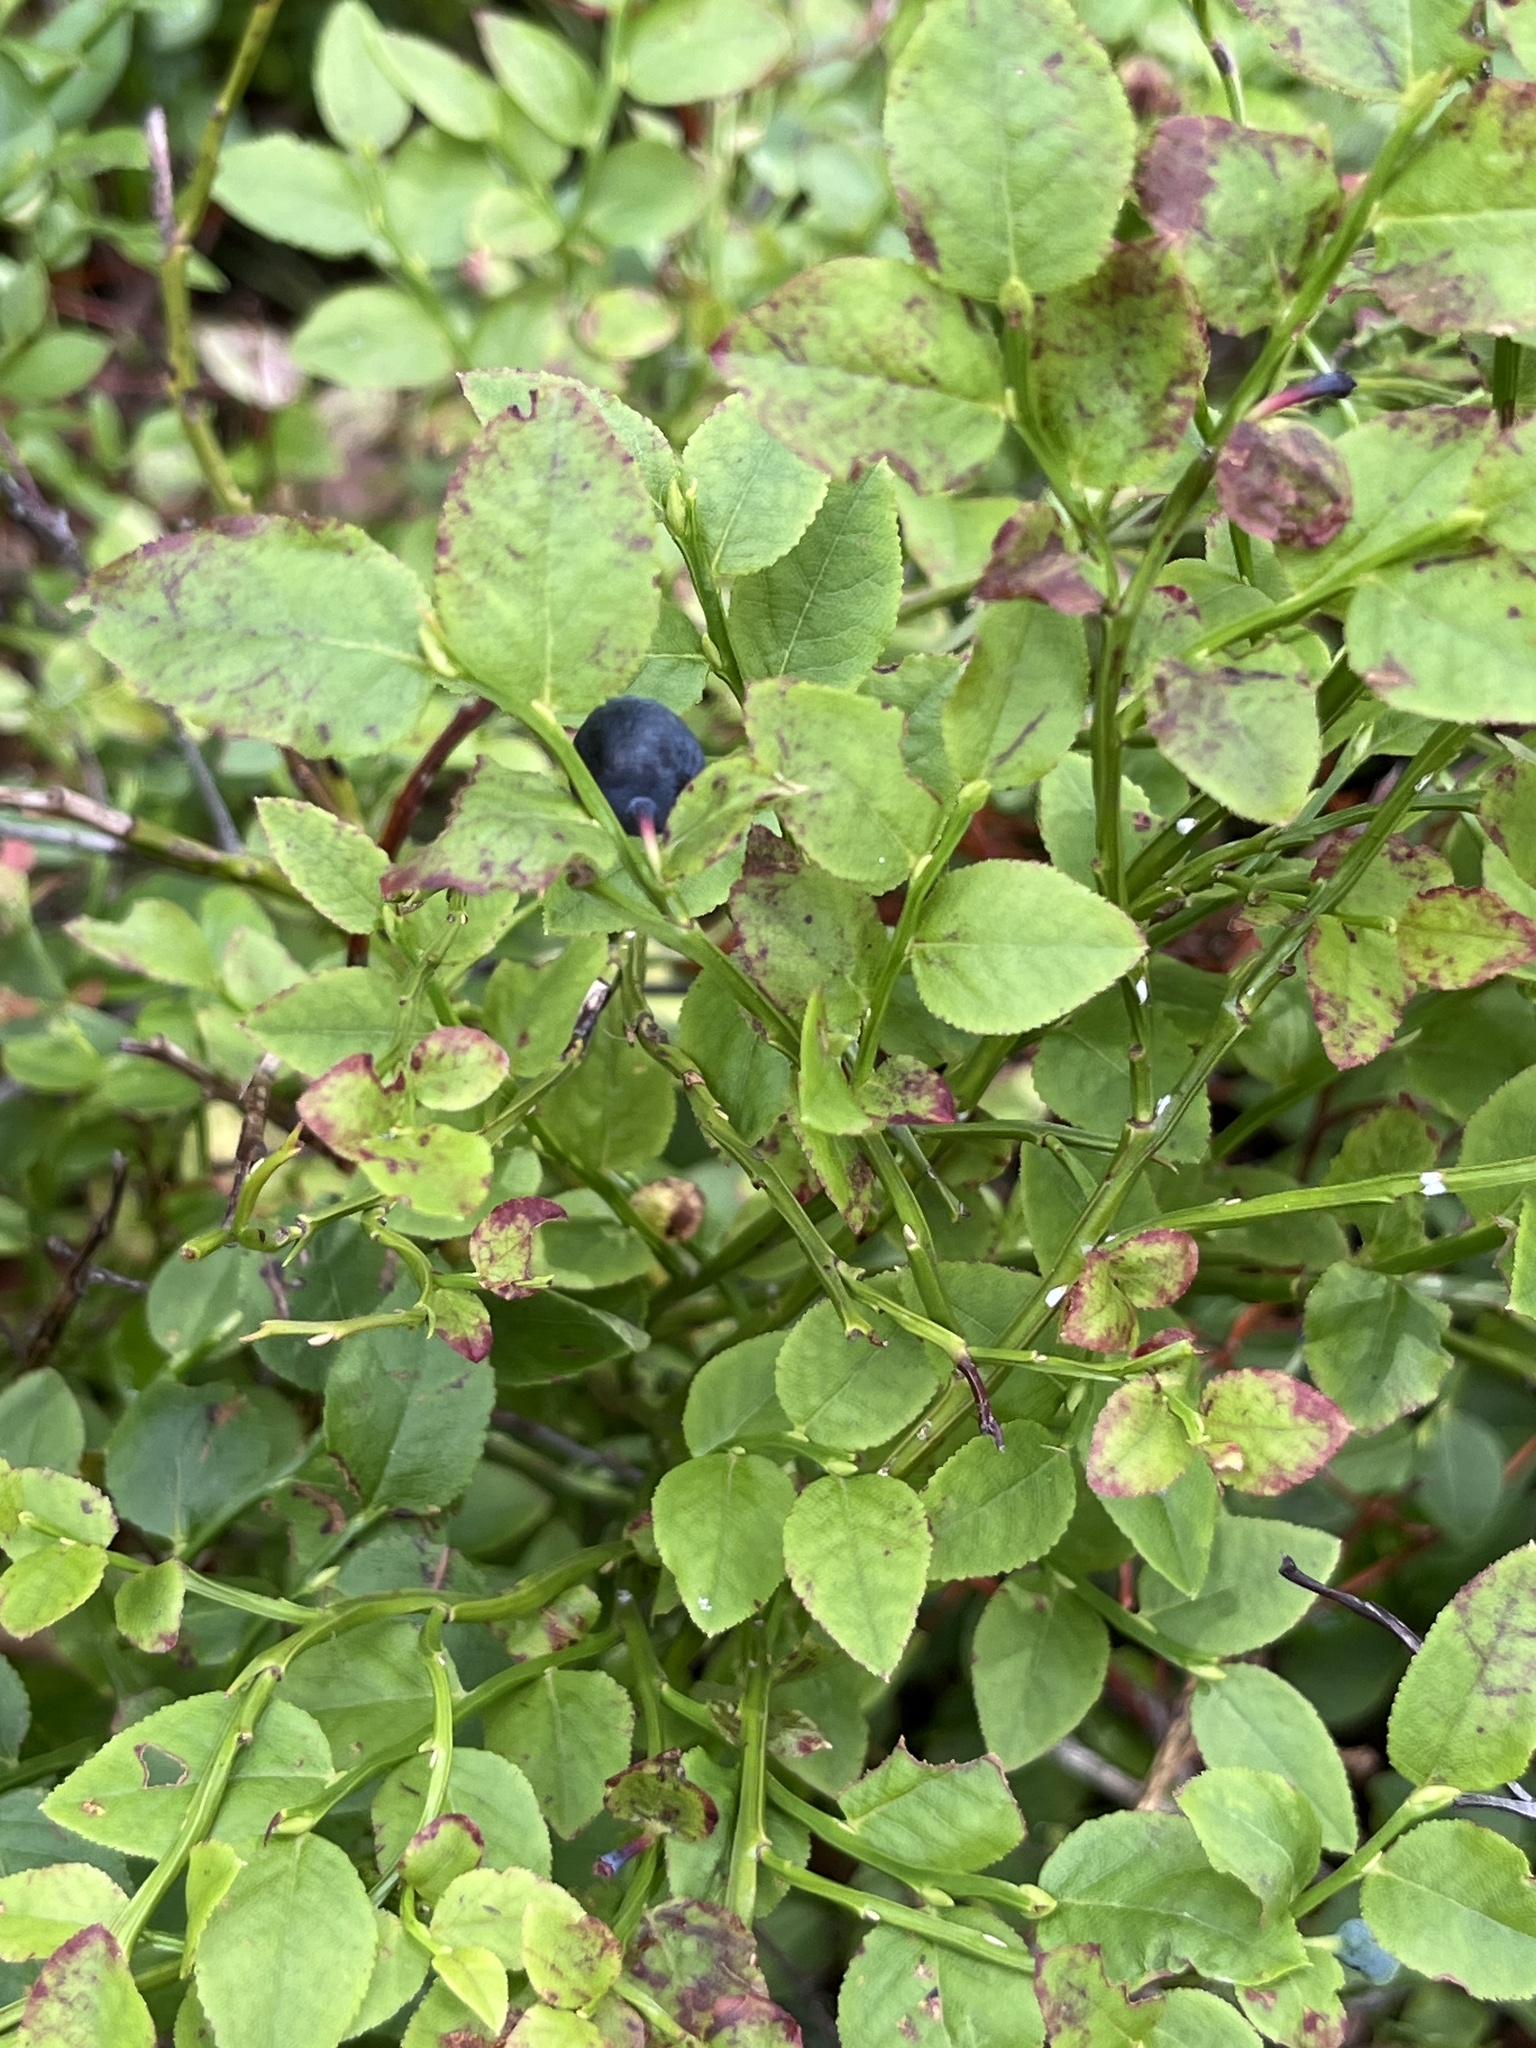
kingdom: Plantae
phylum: Tracheophyta
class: Magnoliopsida
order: Ericales
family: Ericaceae
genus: Vaccinium
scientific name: Vaccinium myrtillus
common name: Bilberry
